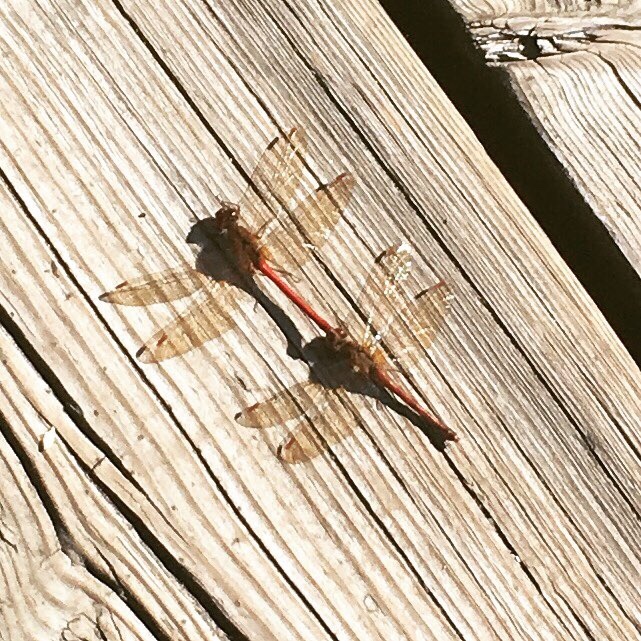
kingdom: Animalia
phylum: Arthropoda
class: Insecta
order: Odonata
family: Libellulidae
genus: Sympetrum
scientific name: Sympetrum vicinum
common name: Autumn meadowhawk
